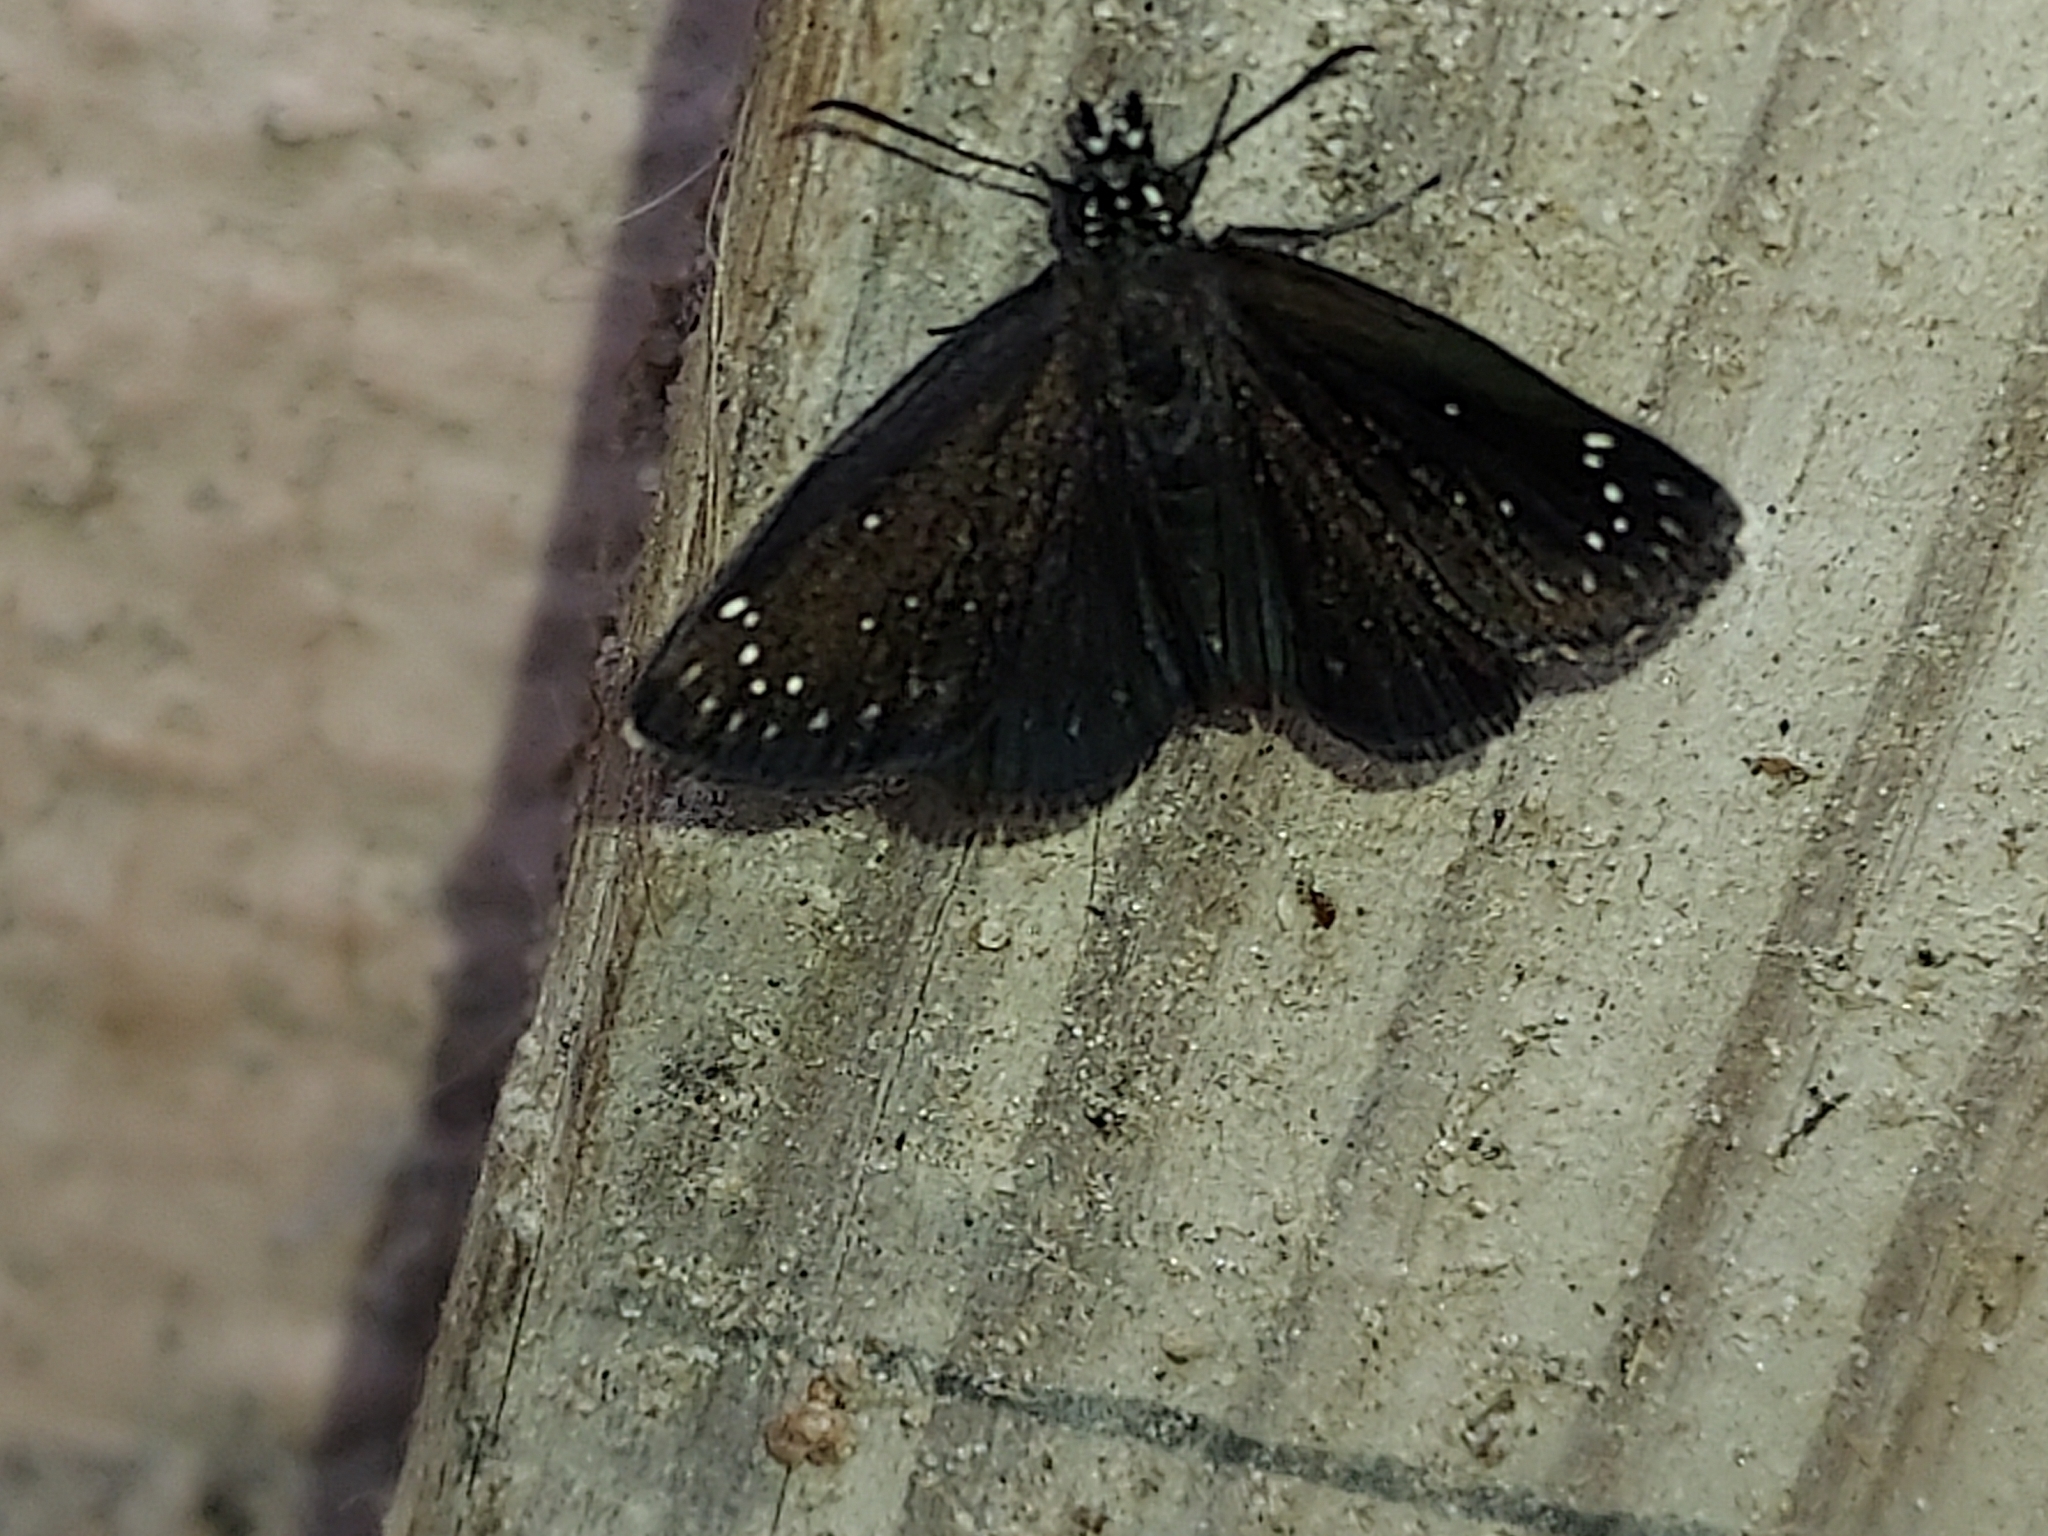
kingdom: Animalia
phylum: Arthropoda
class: Insecta
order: Lepidoptera
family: Hesperiidae
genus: Pholisora
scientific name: Pholisora catullus
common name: Common sootywing
